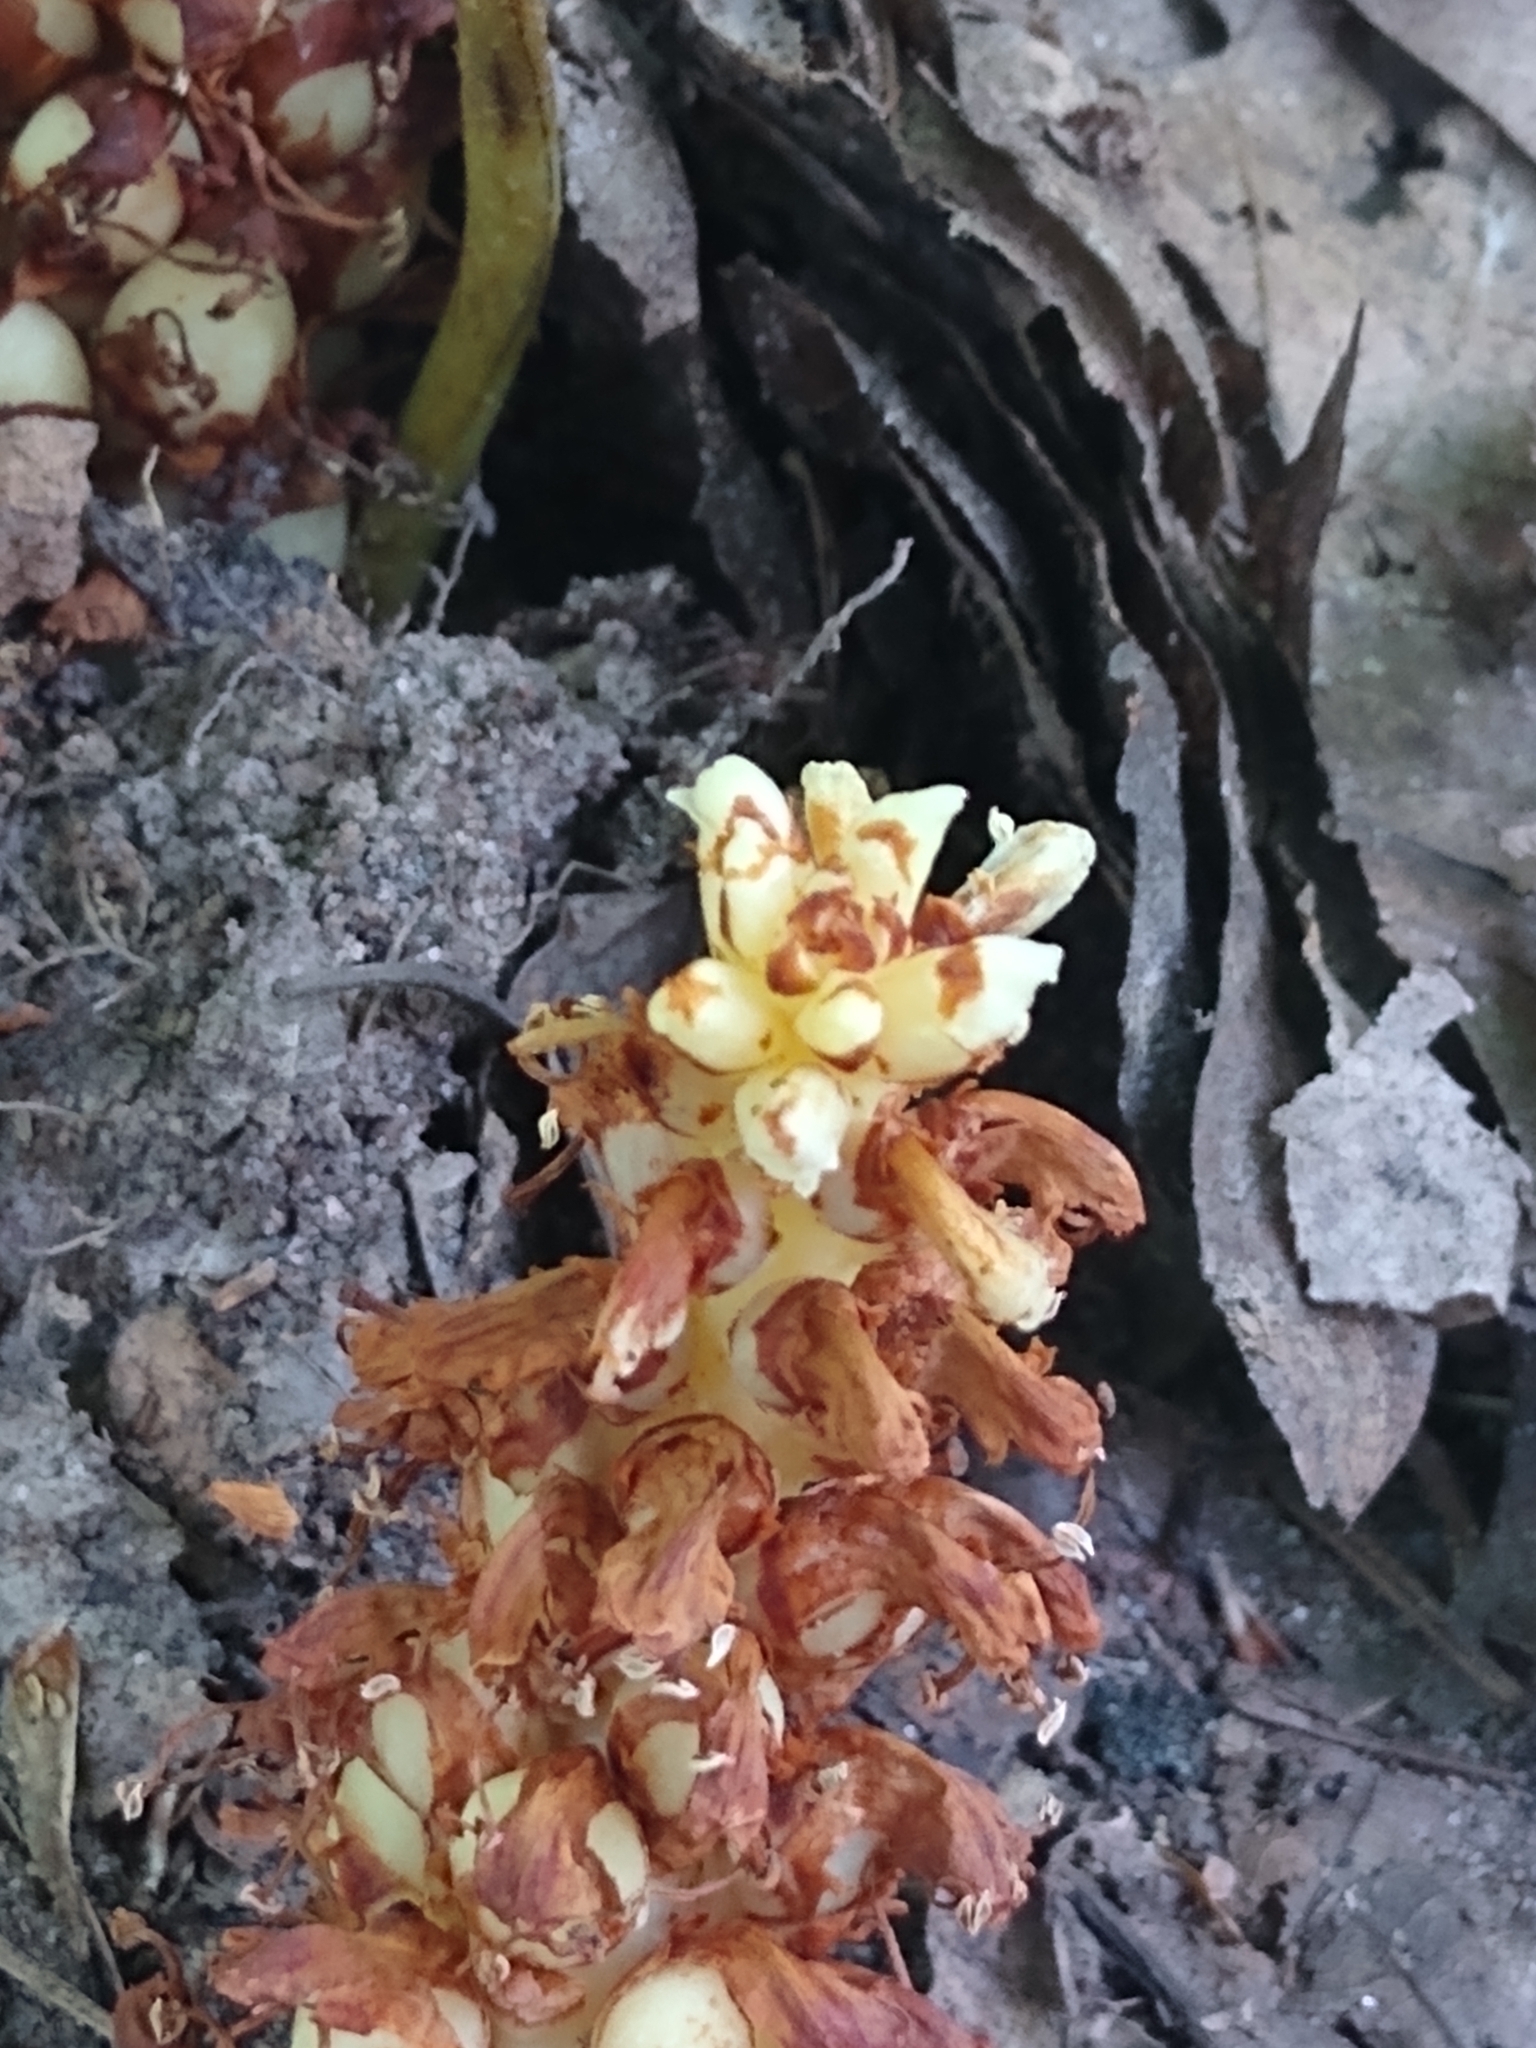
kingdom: Plantae
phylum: Tracheophyta
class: Magnoliopsida
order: Lamiales
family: Orobanchaceae
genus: Conopholis
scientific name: Conopholis americana
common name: American cancer-root
